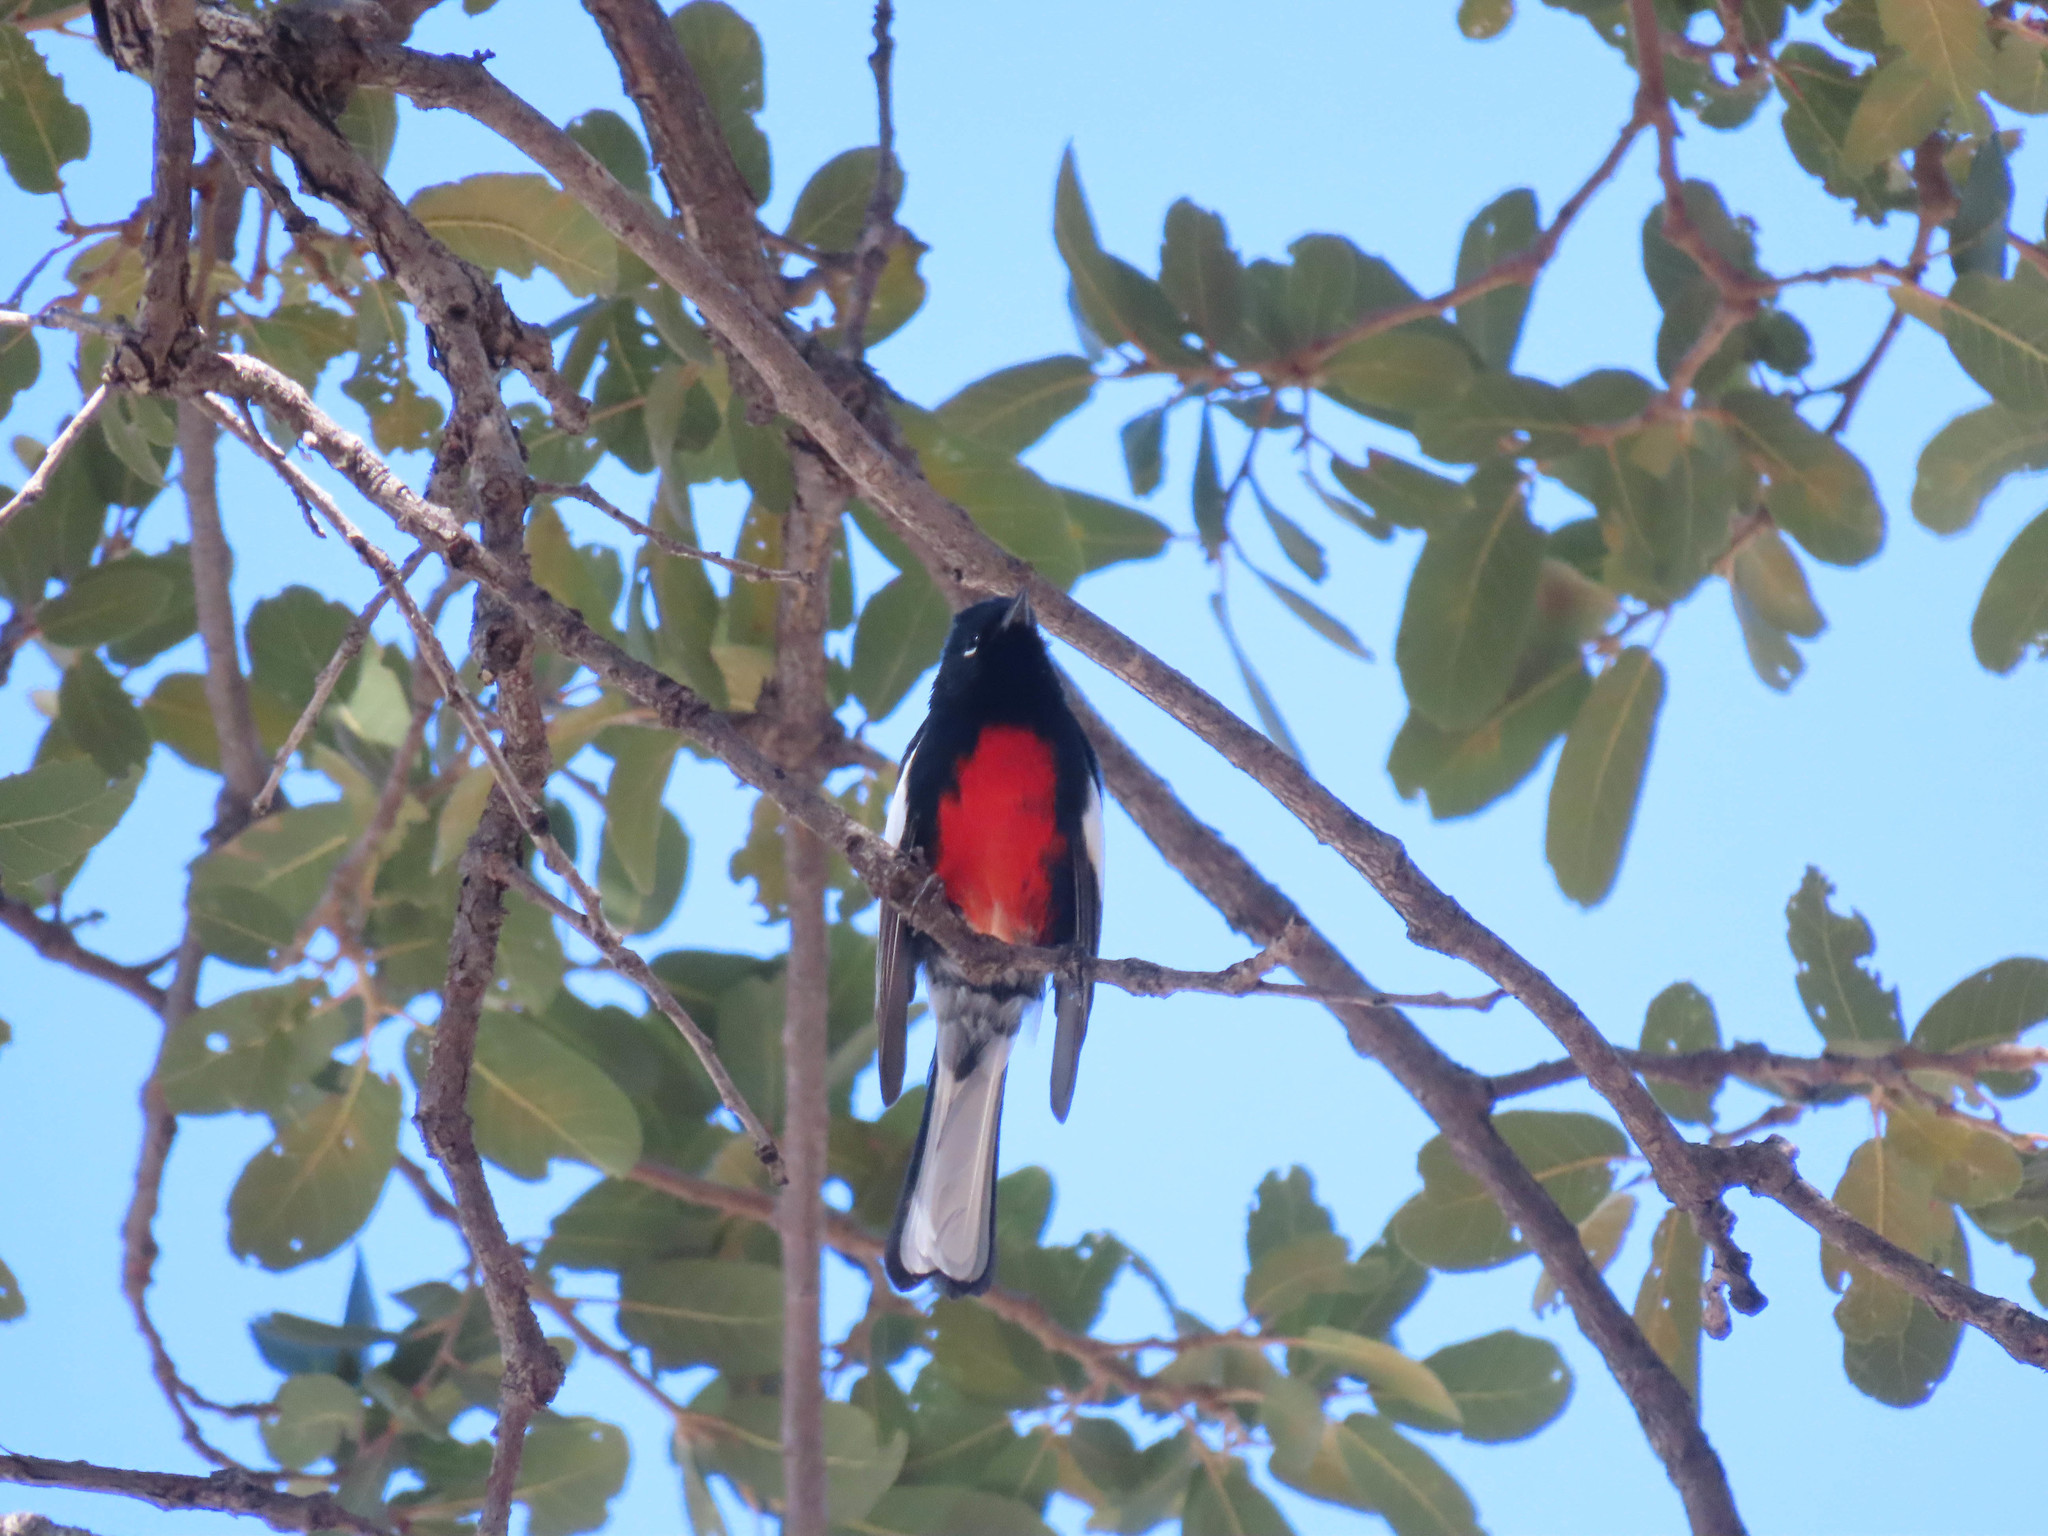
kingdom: Animalia
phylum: Chordata
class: Aves
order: Passeriformes
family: Parulidae
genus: Myioborus
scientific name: Myioborus pictus
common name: Painted whitestart
